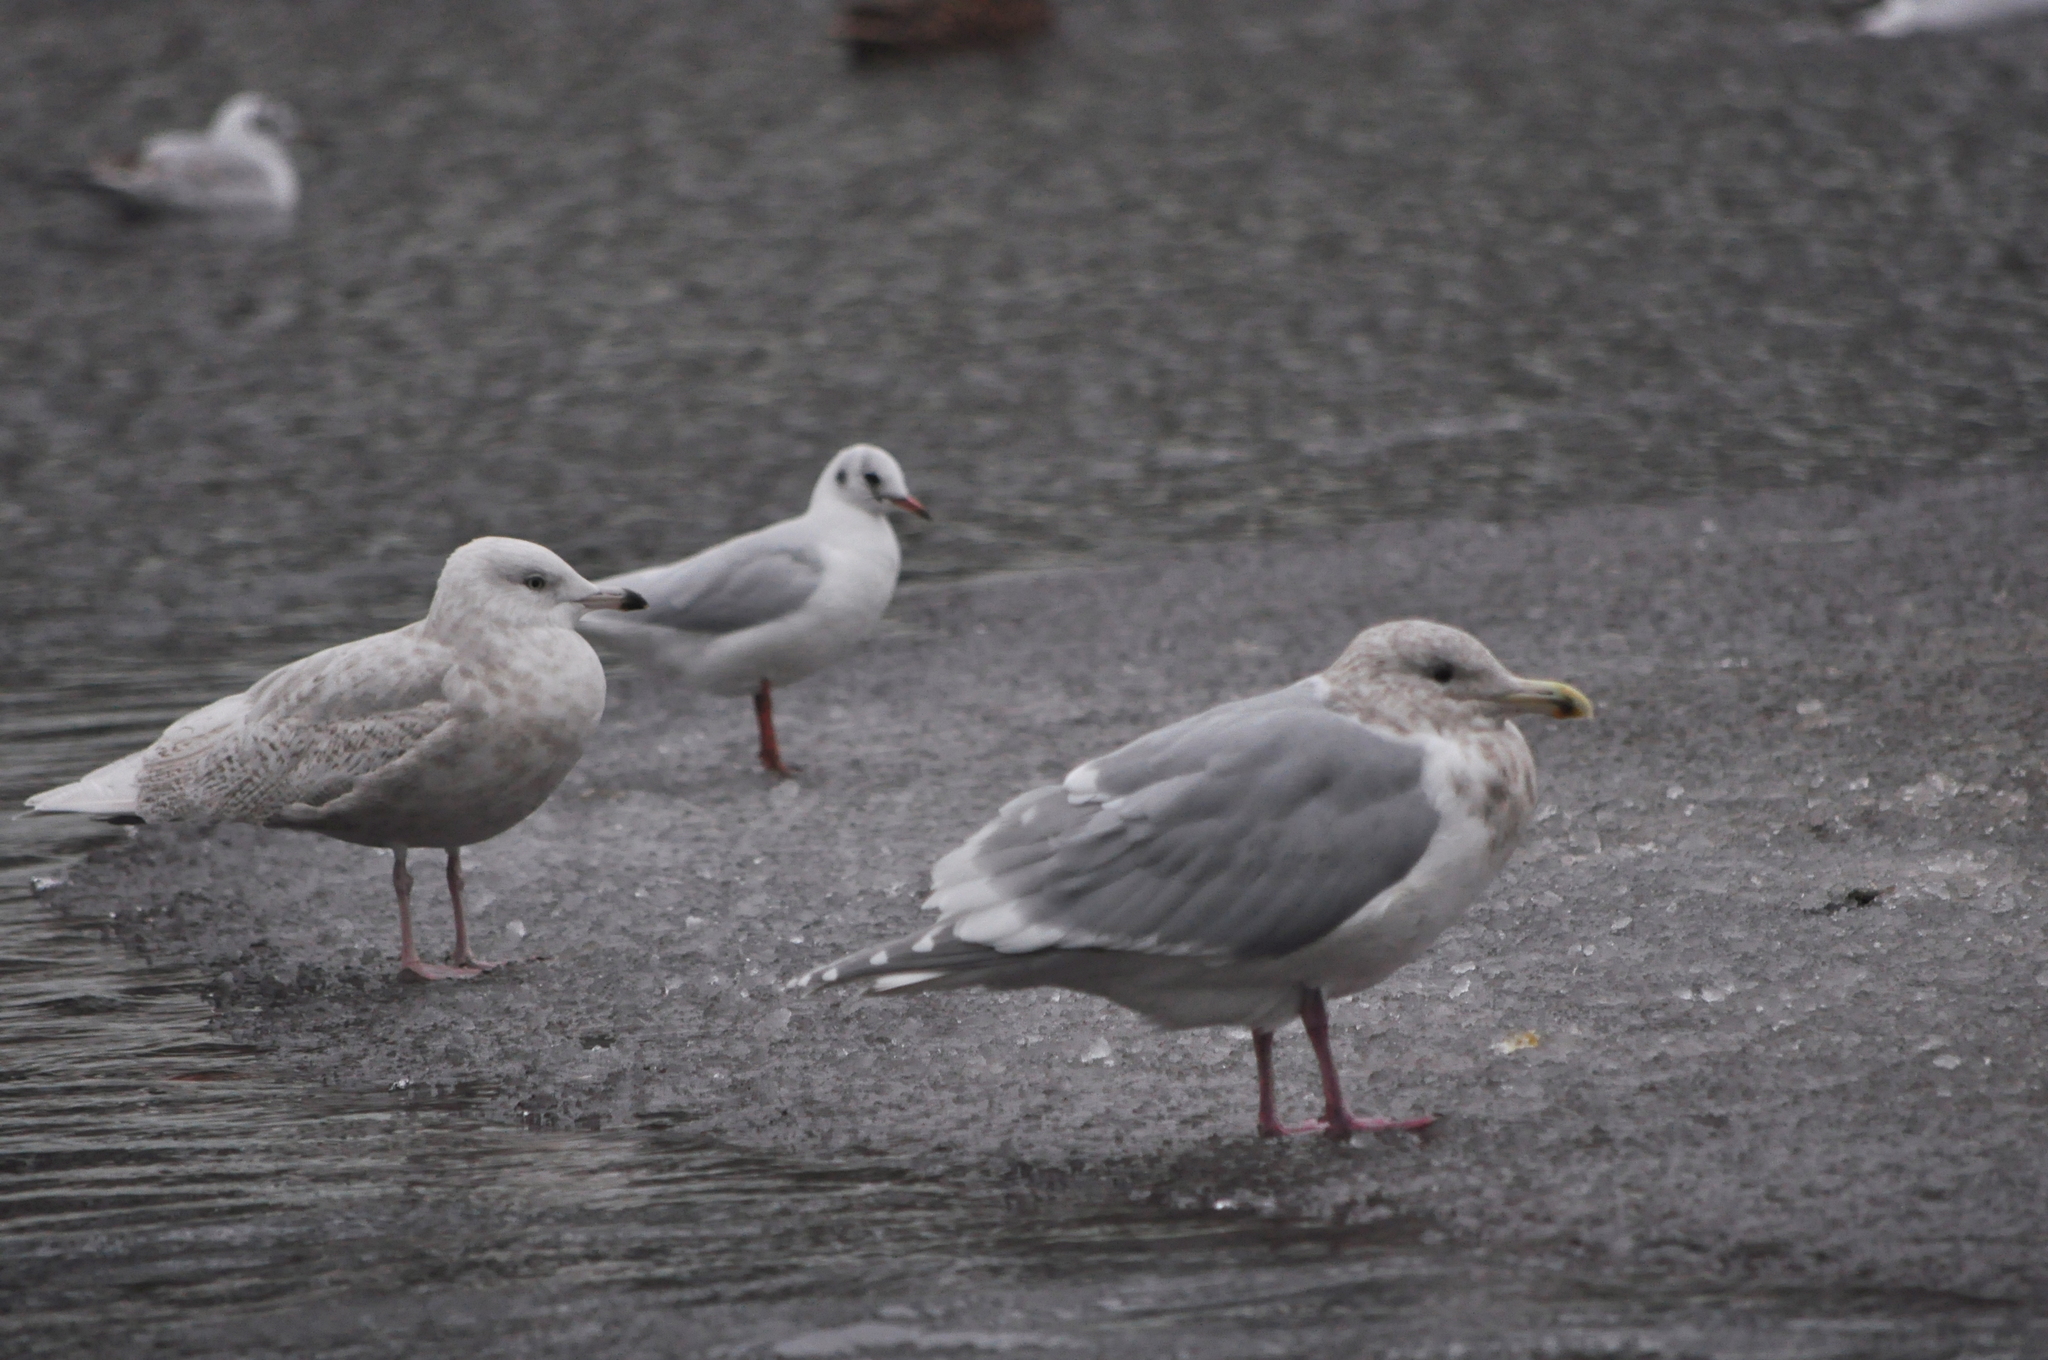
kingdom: Animalia
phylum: Chordata
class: Aves
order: Charadriiformes
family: Laridae
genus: Larus
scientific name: Larus glaucescens
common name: Glaucous-winged gull
